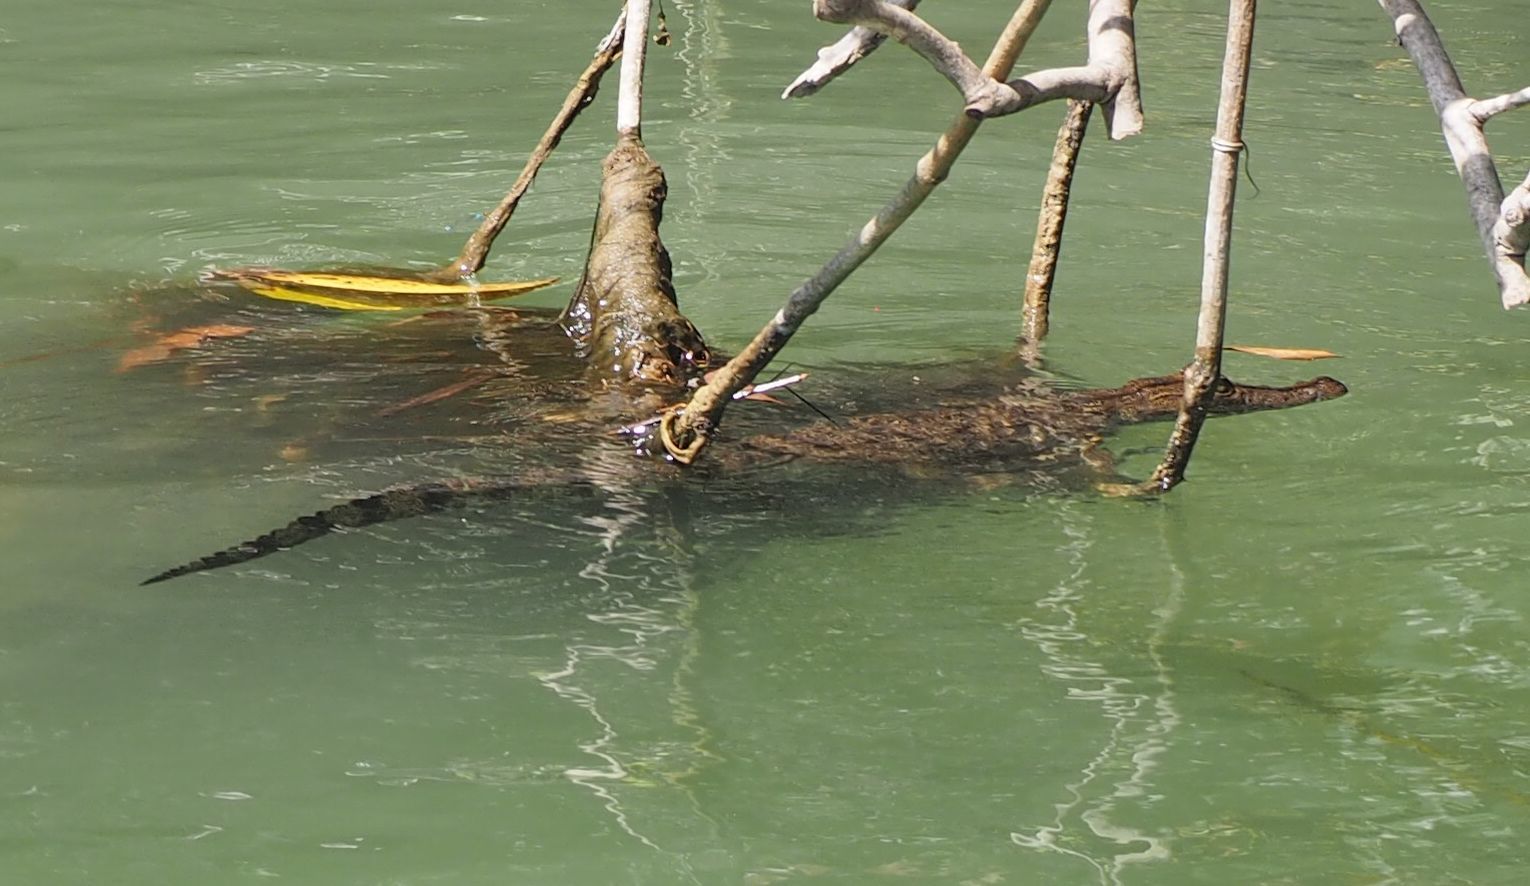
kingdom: Animalia
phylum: Chordata
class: Crocodylia
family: Crocodylidae
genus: Crocodylus
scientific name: Crocodylus moreletii
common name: Morelet's crocodile
